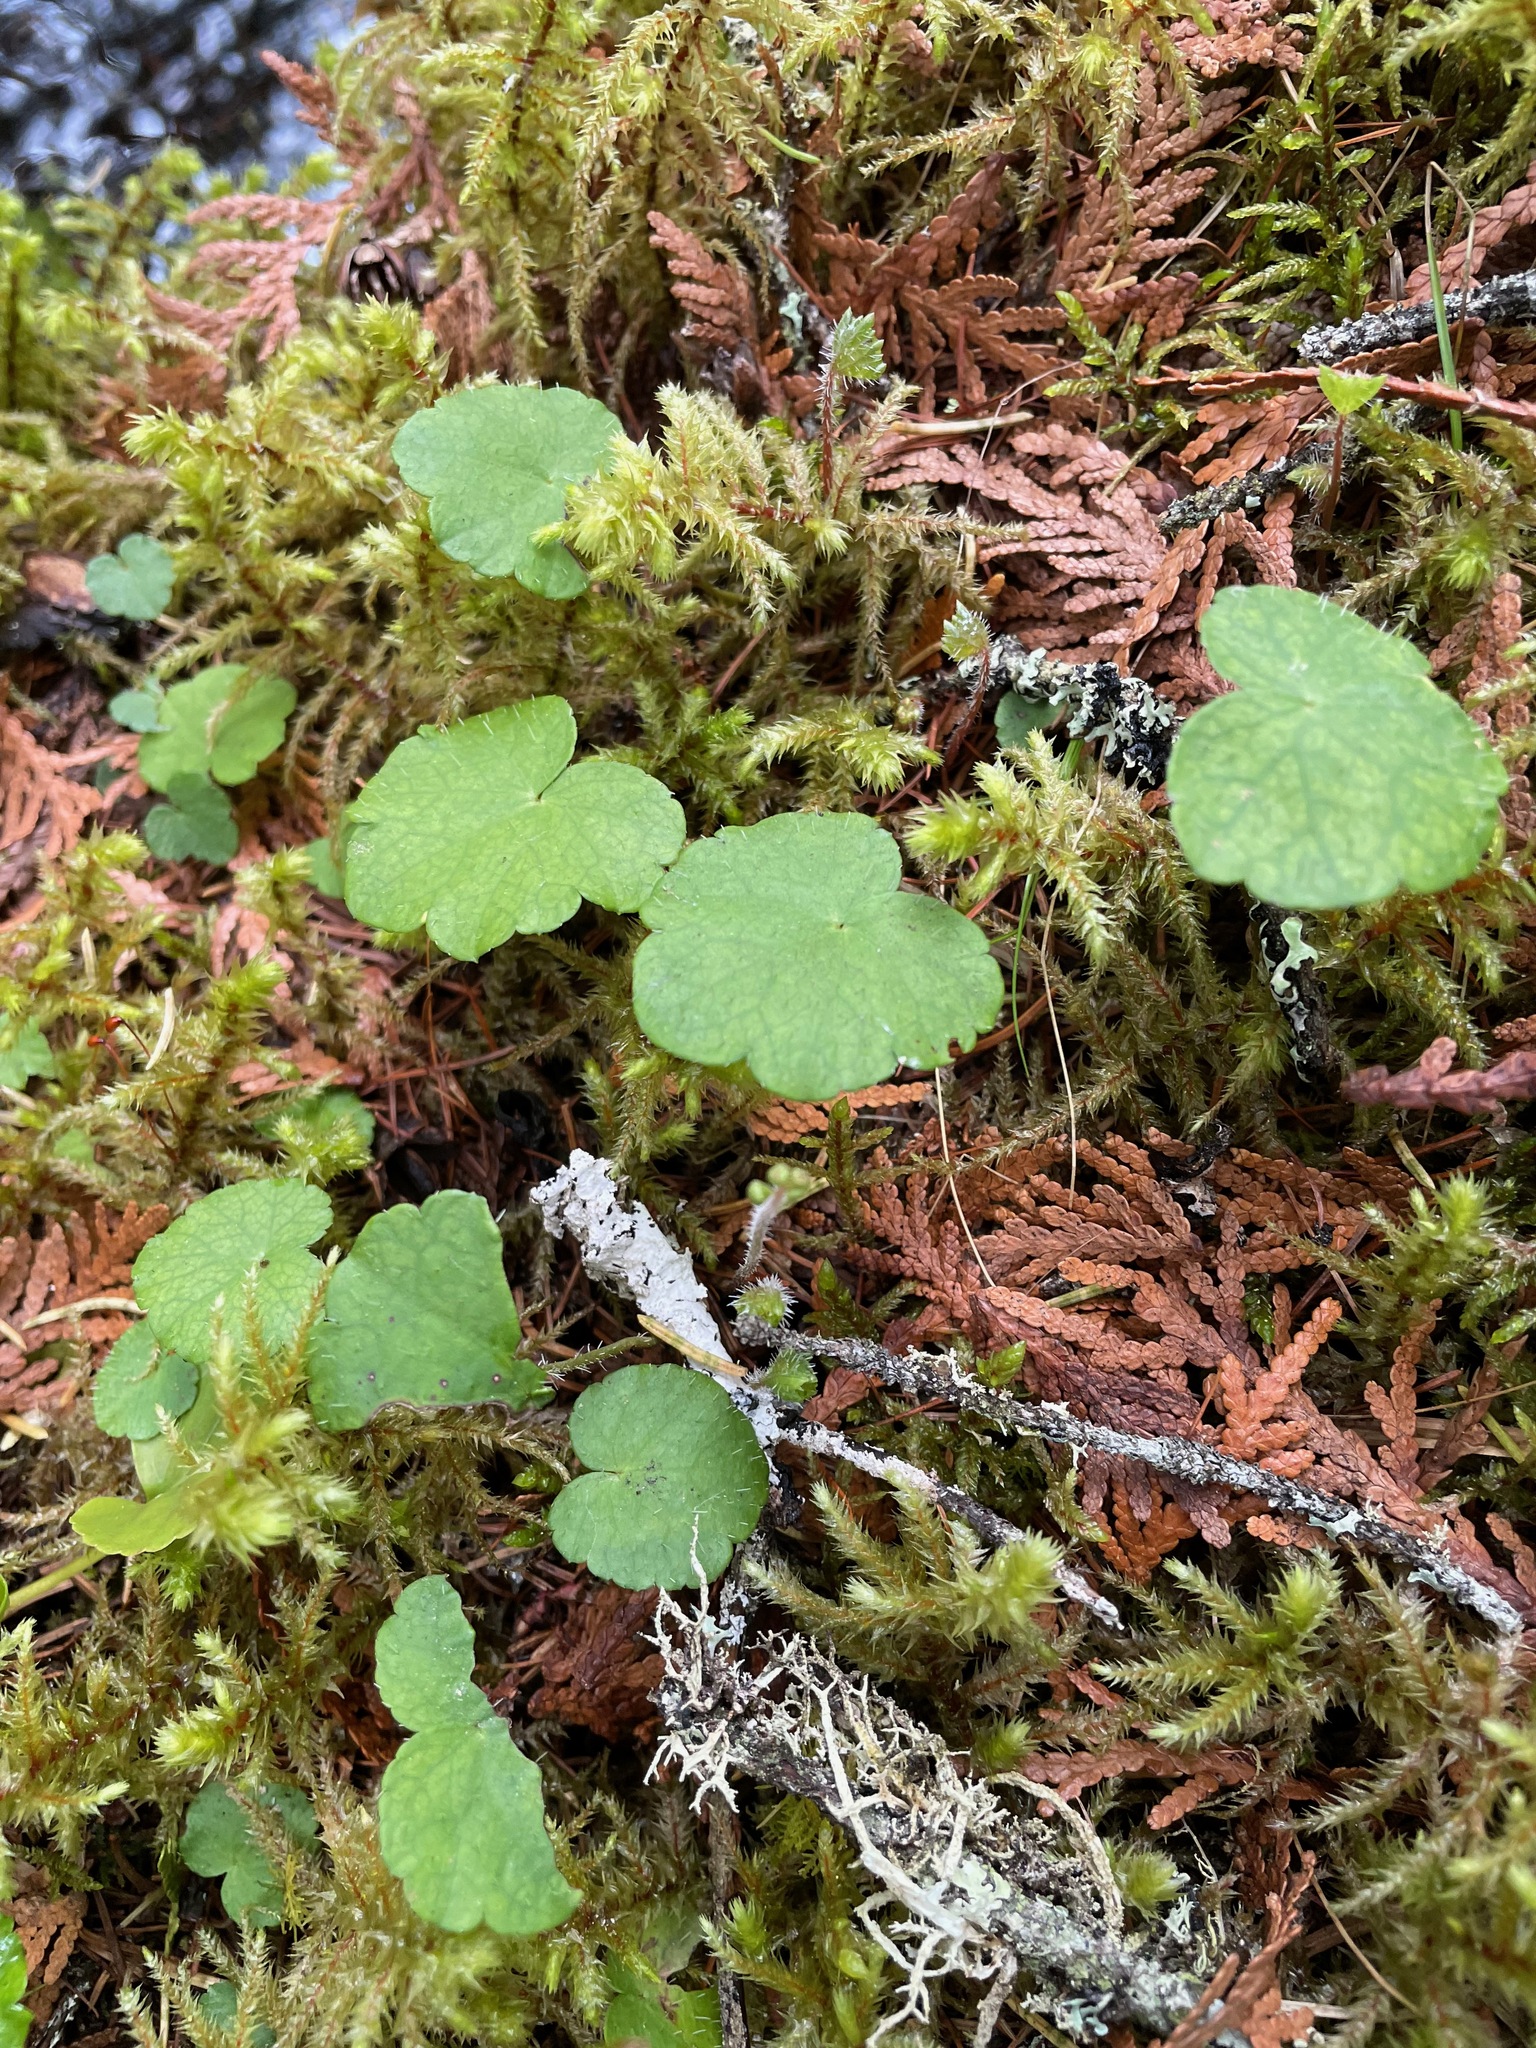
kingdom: Plantae
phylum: Tracheophyta
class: Magnoliopsida
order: Saxifragales
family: Saxifragaceae
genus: Mitella
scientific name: Mitella nuda
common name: Bare-stemmed bishop's-cap
